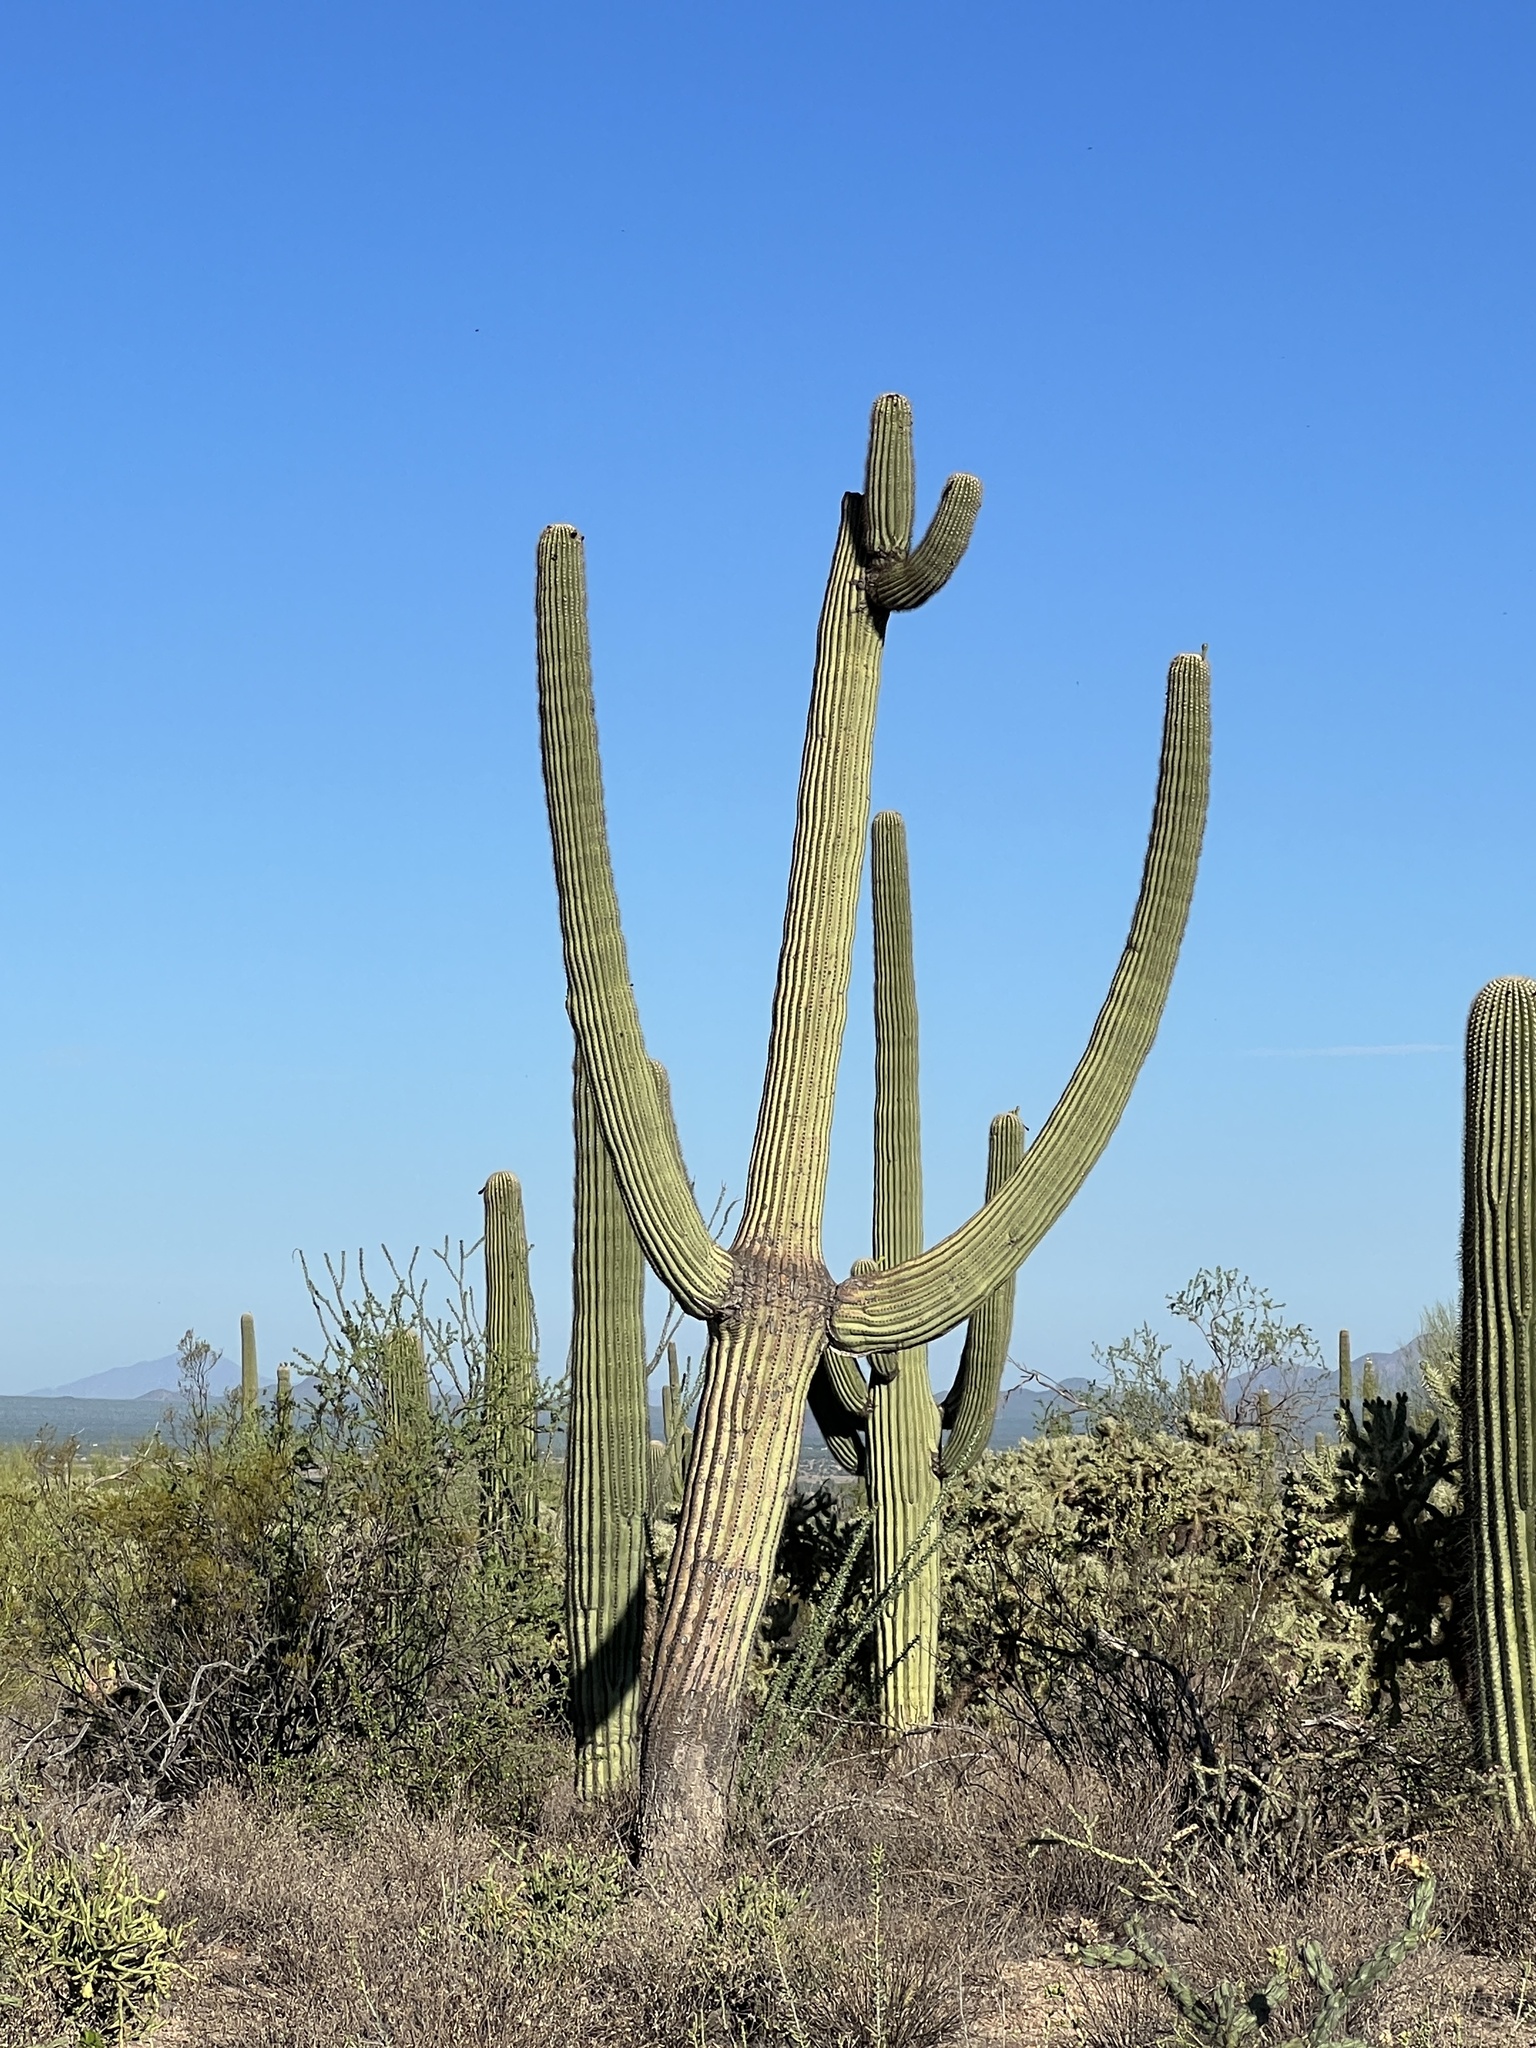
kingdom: Plantae
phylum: Tracheophyta
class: Magnoliopsida
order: Caryophyllales
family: Cactaceae
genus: Carnegiea
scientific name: Carnegiea gigantea
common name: Saguaro
